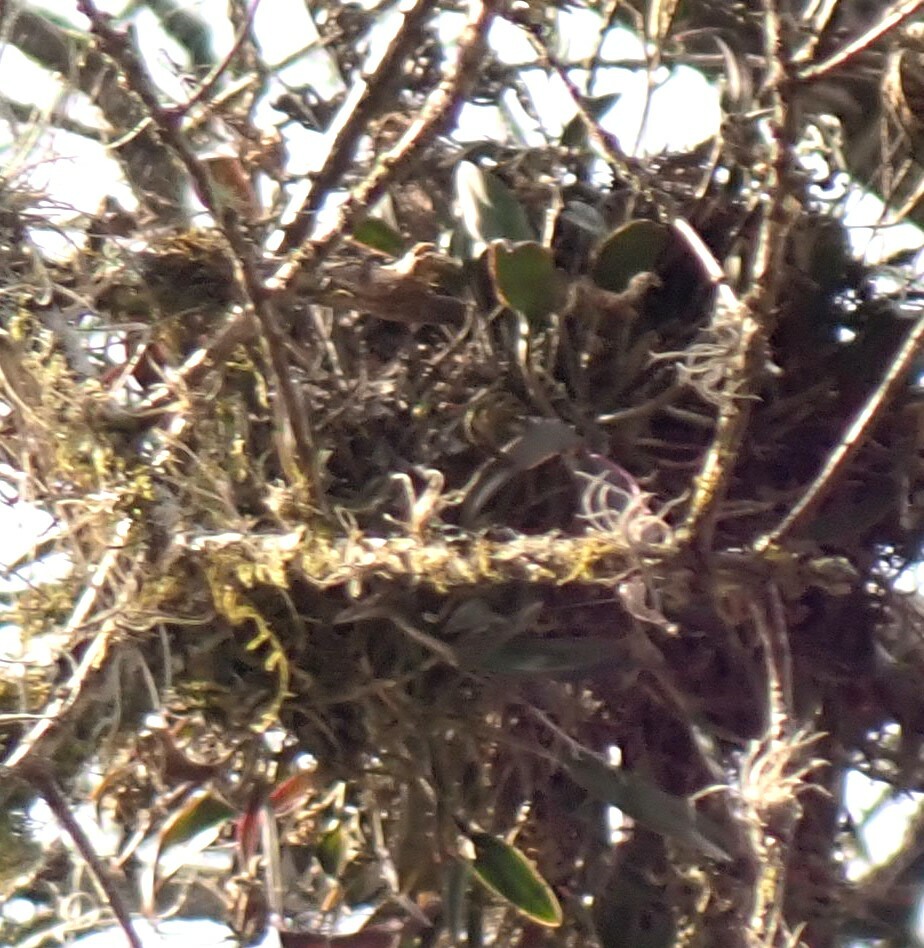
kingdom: Plantae
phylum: Tracheophyta
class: Liliopsida
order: Asparagales
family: Orchidaceae
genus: Epidendrum
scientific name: Epidendrum conopseum
